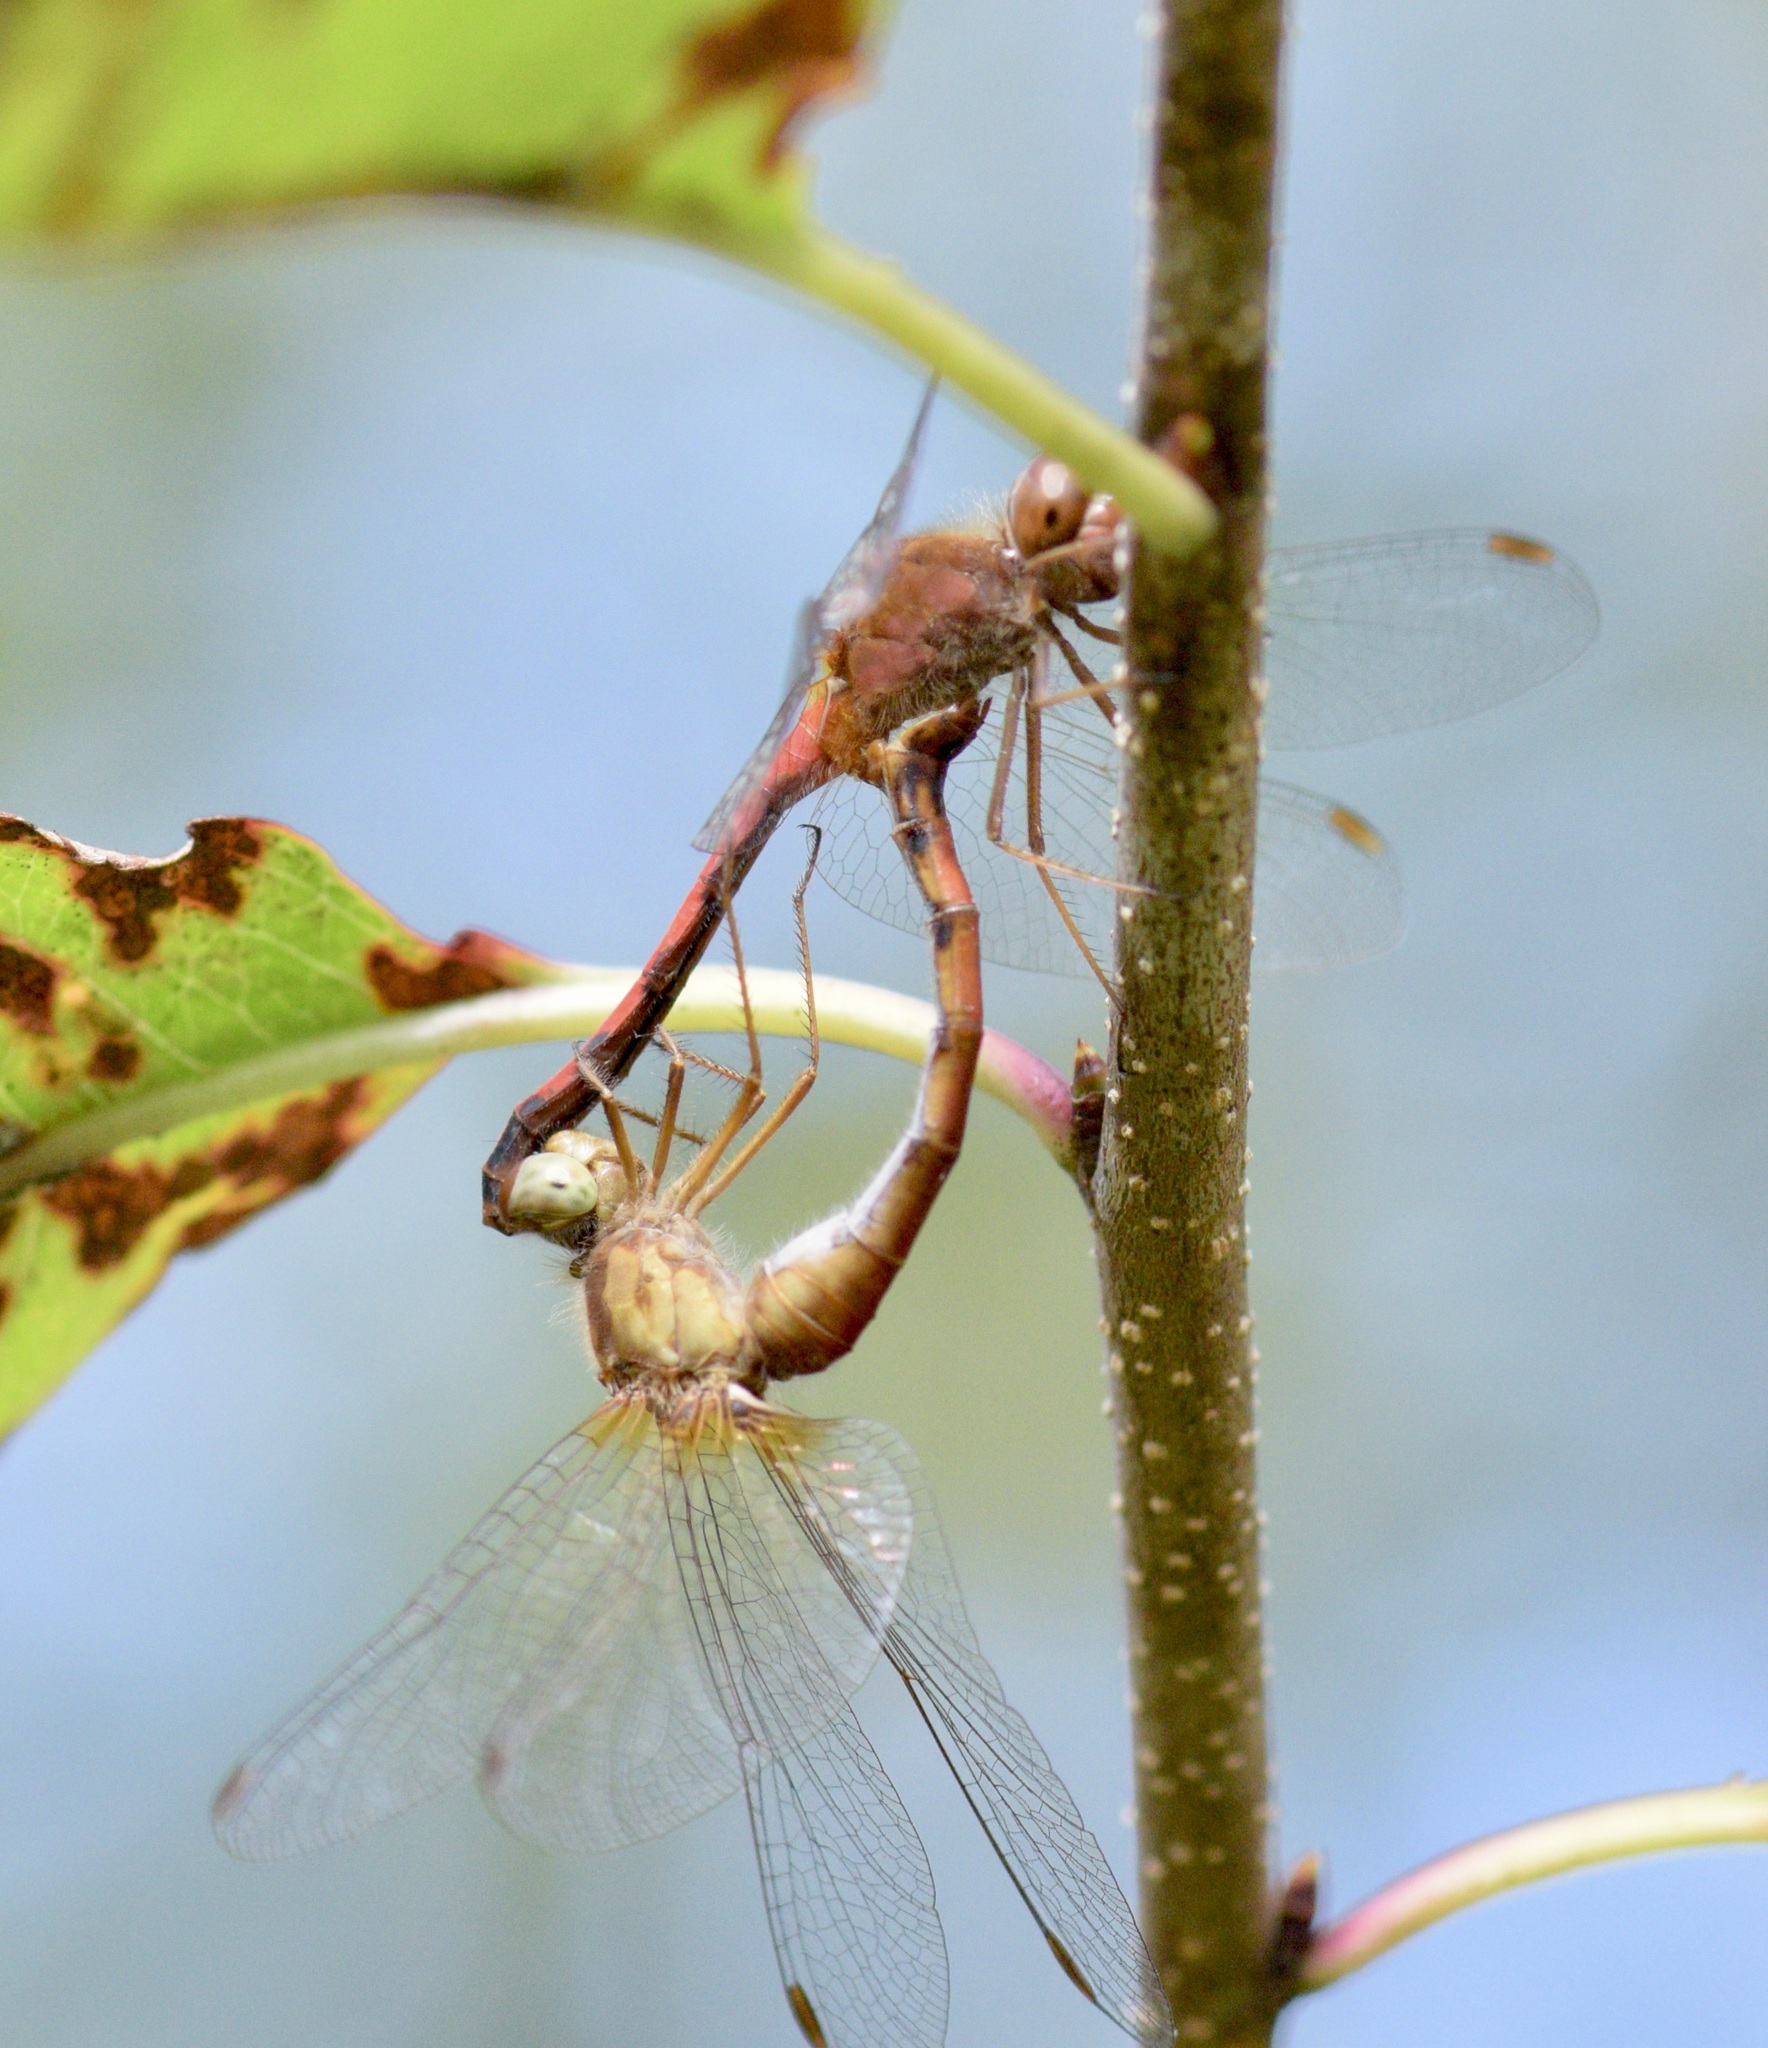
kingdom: Animalia
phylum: Arthropoda
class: Insecta
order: Odonata
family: Libellulidae
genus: Sympetrum
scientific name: Sympetrum vicinum
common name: Autumn meadowhawk
